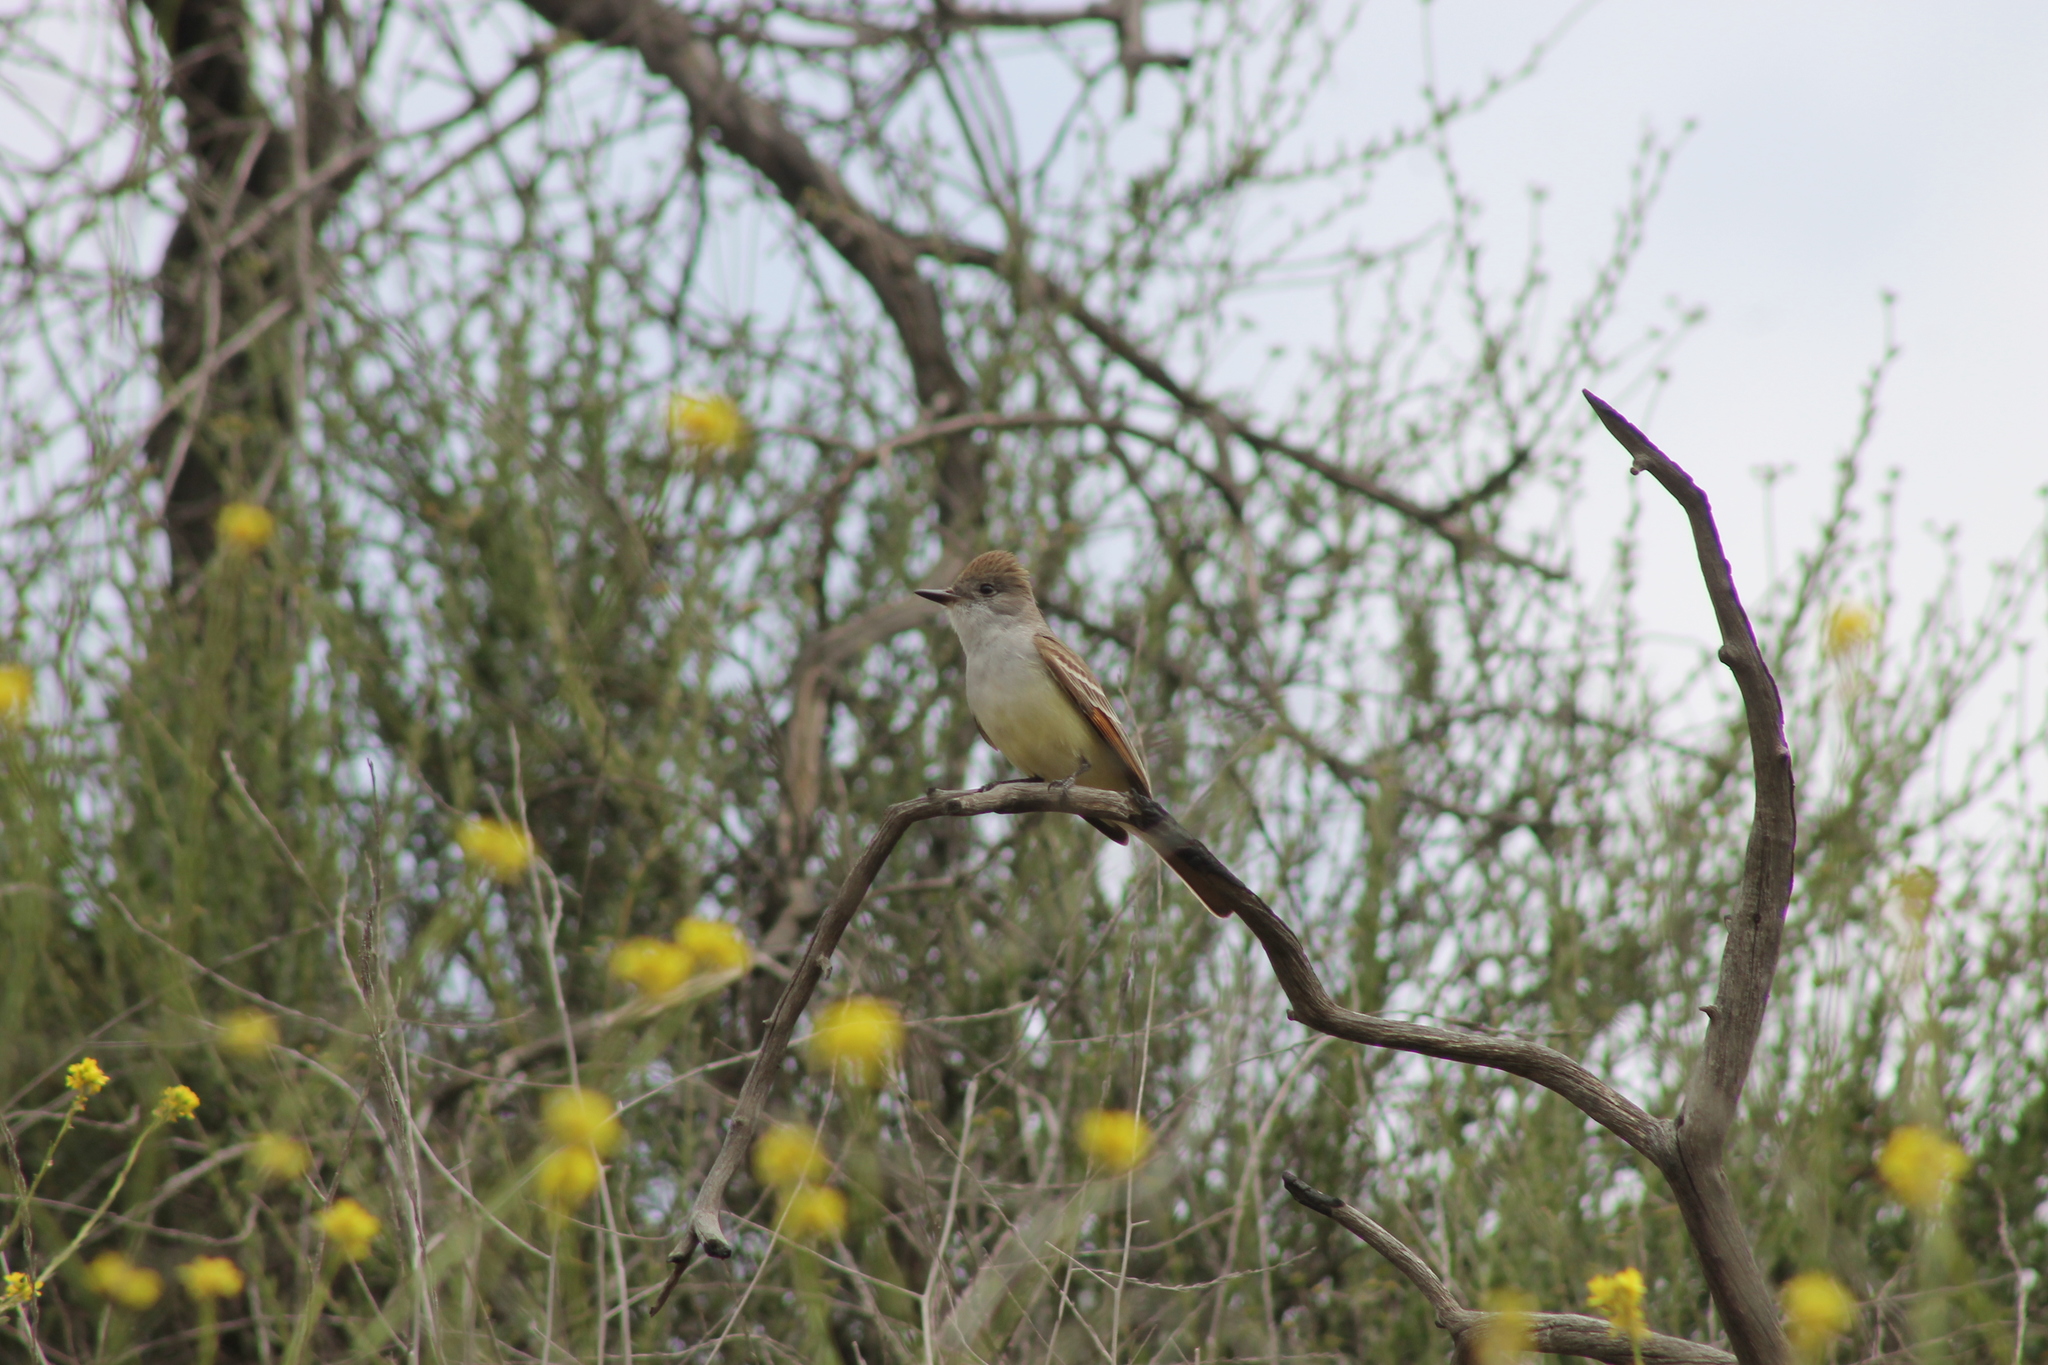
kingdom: Animalia
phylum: Chordata
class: Aves
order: Passeriformes
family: Tyrannidae
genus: Myiarchus
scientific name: Myiarchus cinerascens
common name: Ash-throated flycatcher
